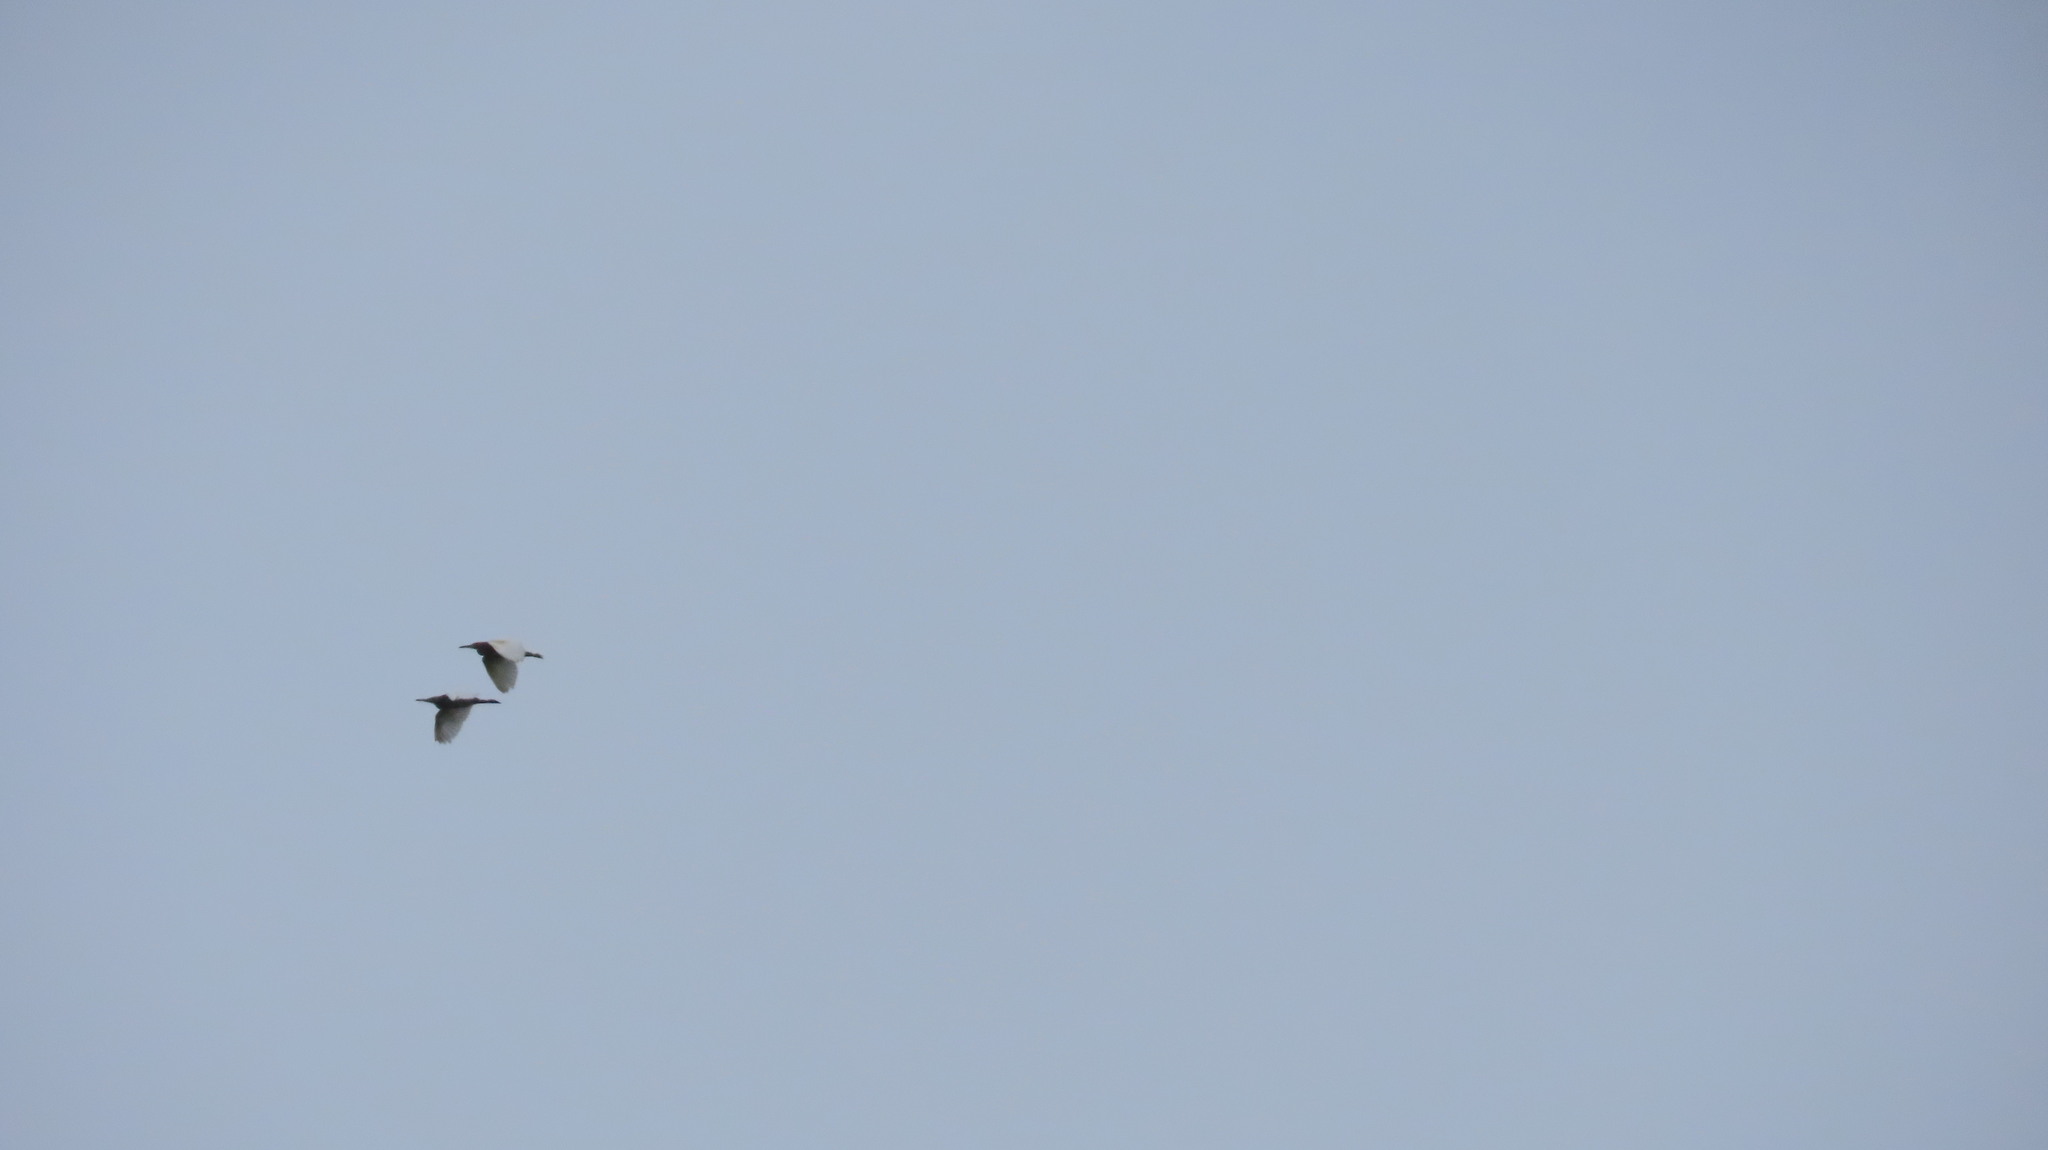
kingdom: Animalia
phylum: Chordata
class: Aves
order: Pelecaniformes
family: Ardeidae
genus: Ardeola
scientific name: Ardeola grayii
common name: Indian pond heron
